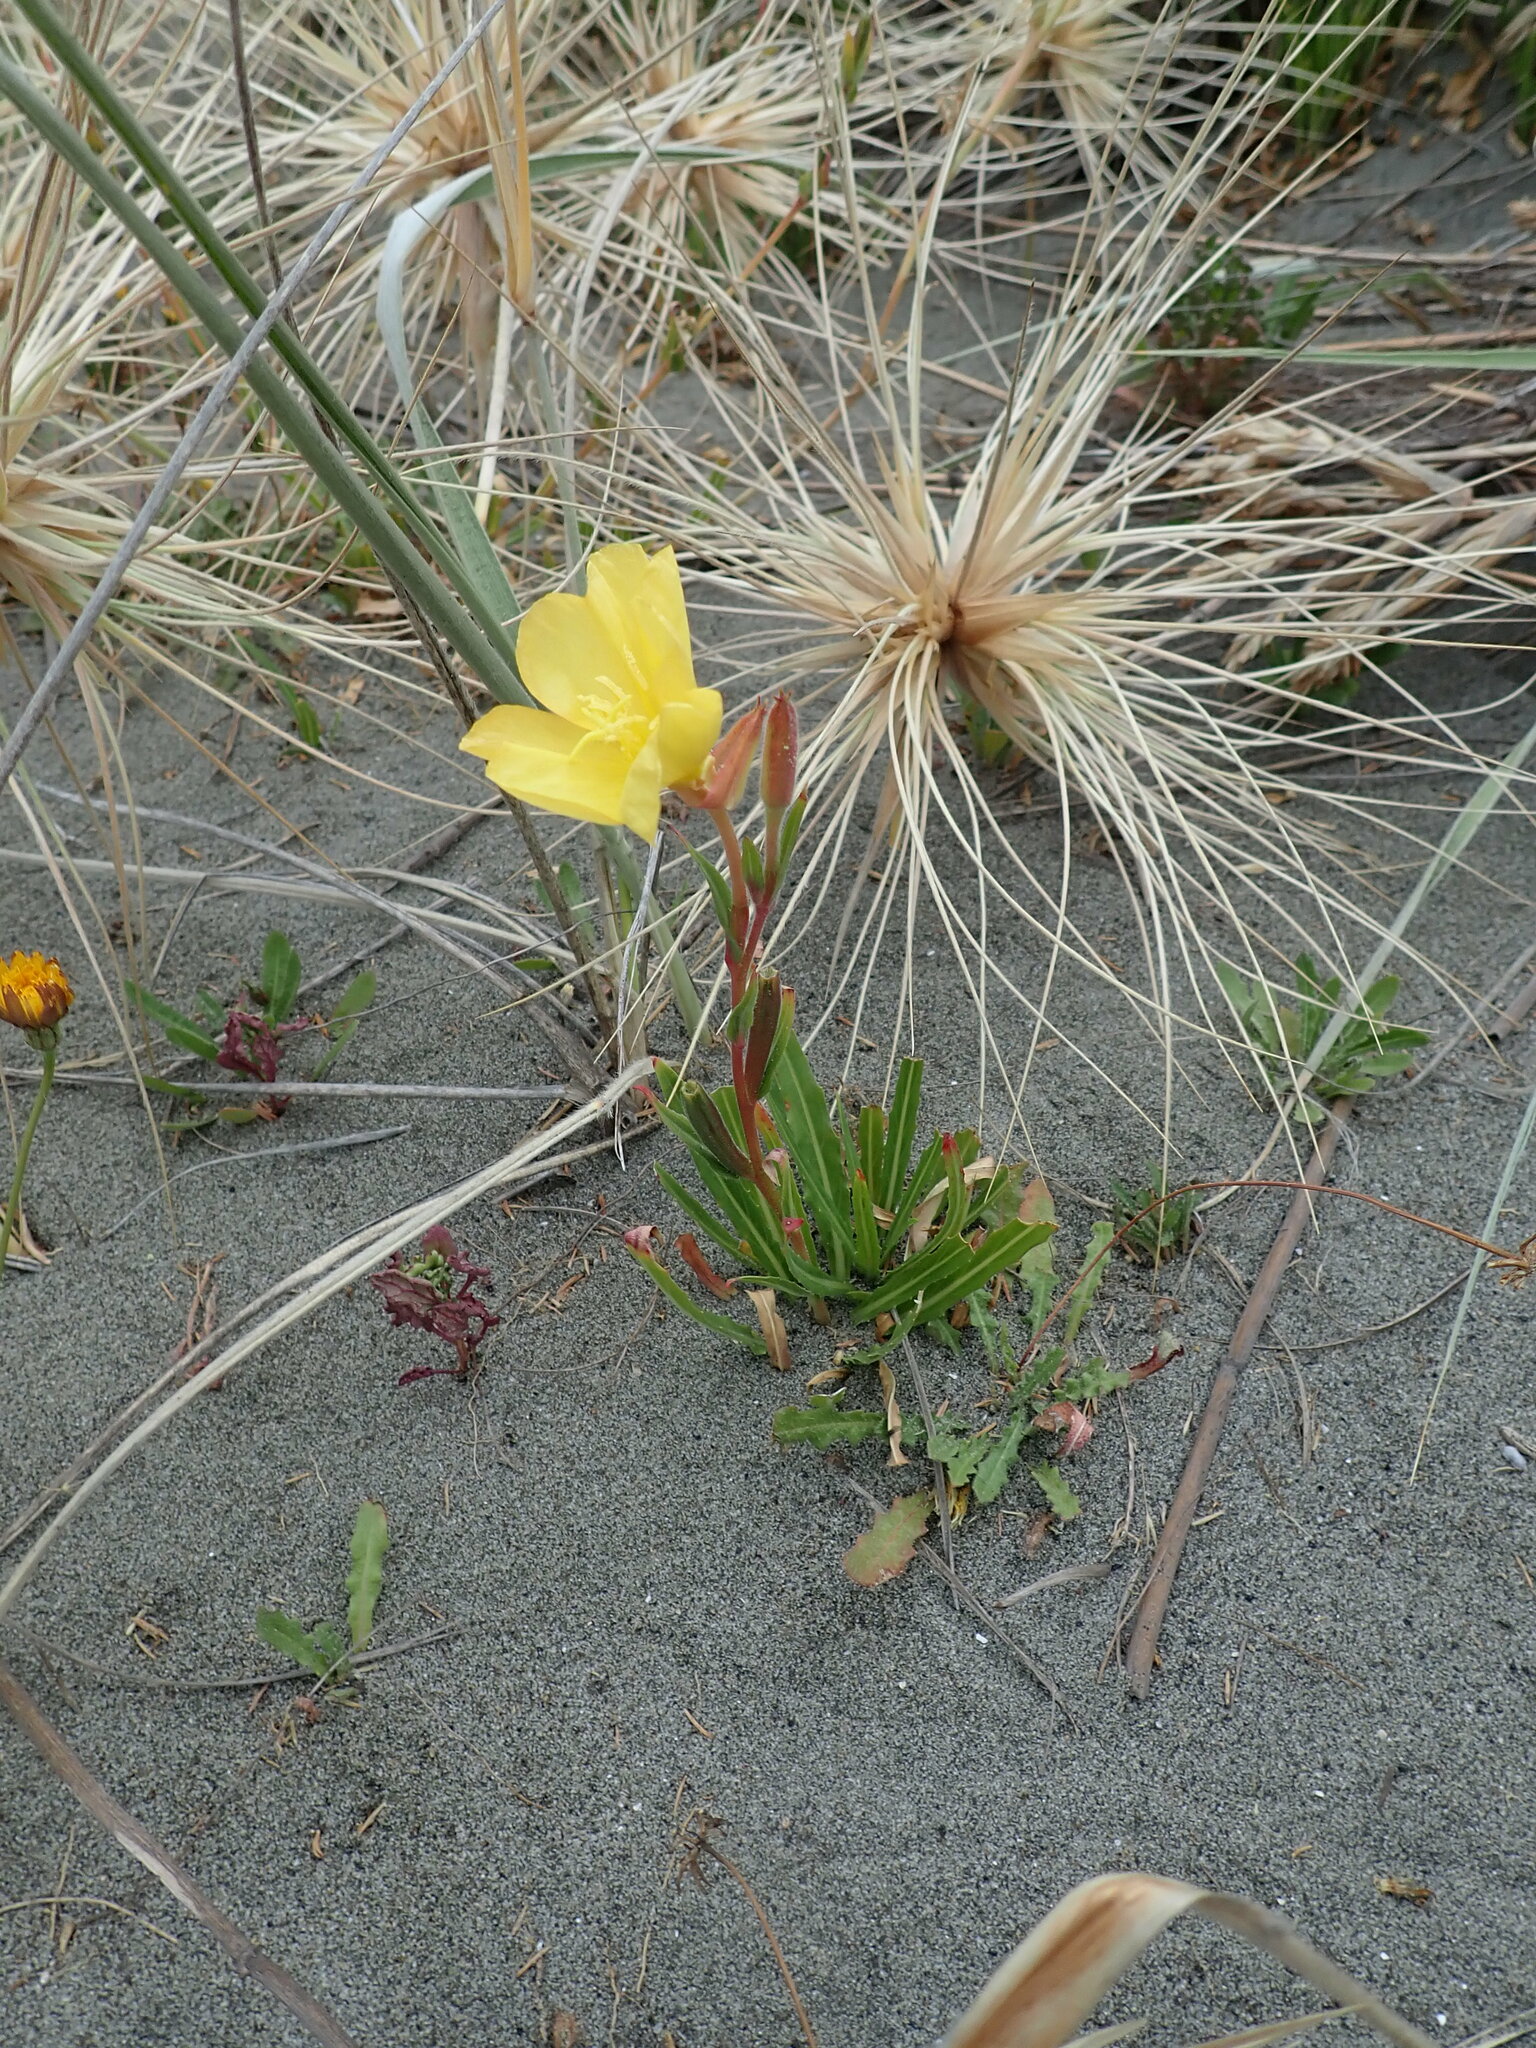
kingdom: Plantae
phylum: Tracheophyta
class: Magnoliopsida
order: Myrtales
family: Onagraceae
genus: Oenothera
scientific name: Oenothera stricta
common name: Fragrant evening-primrose
